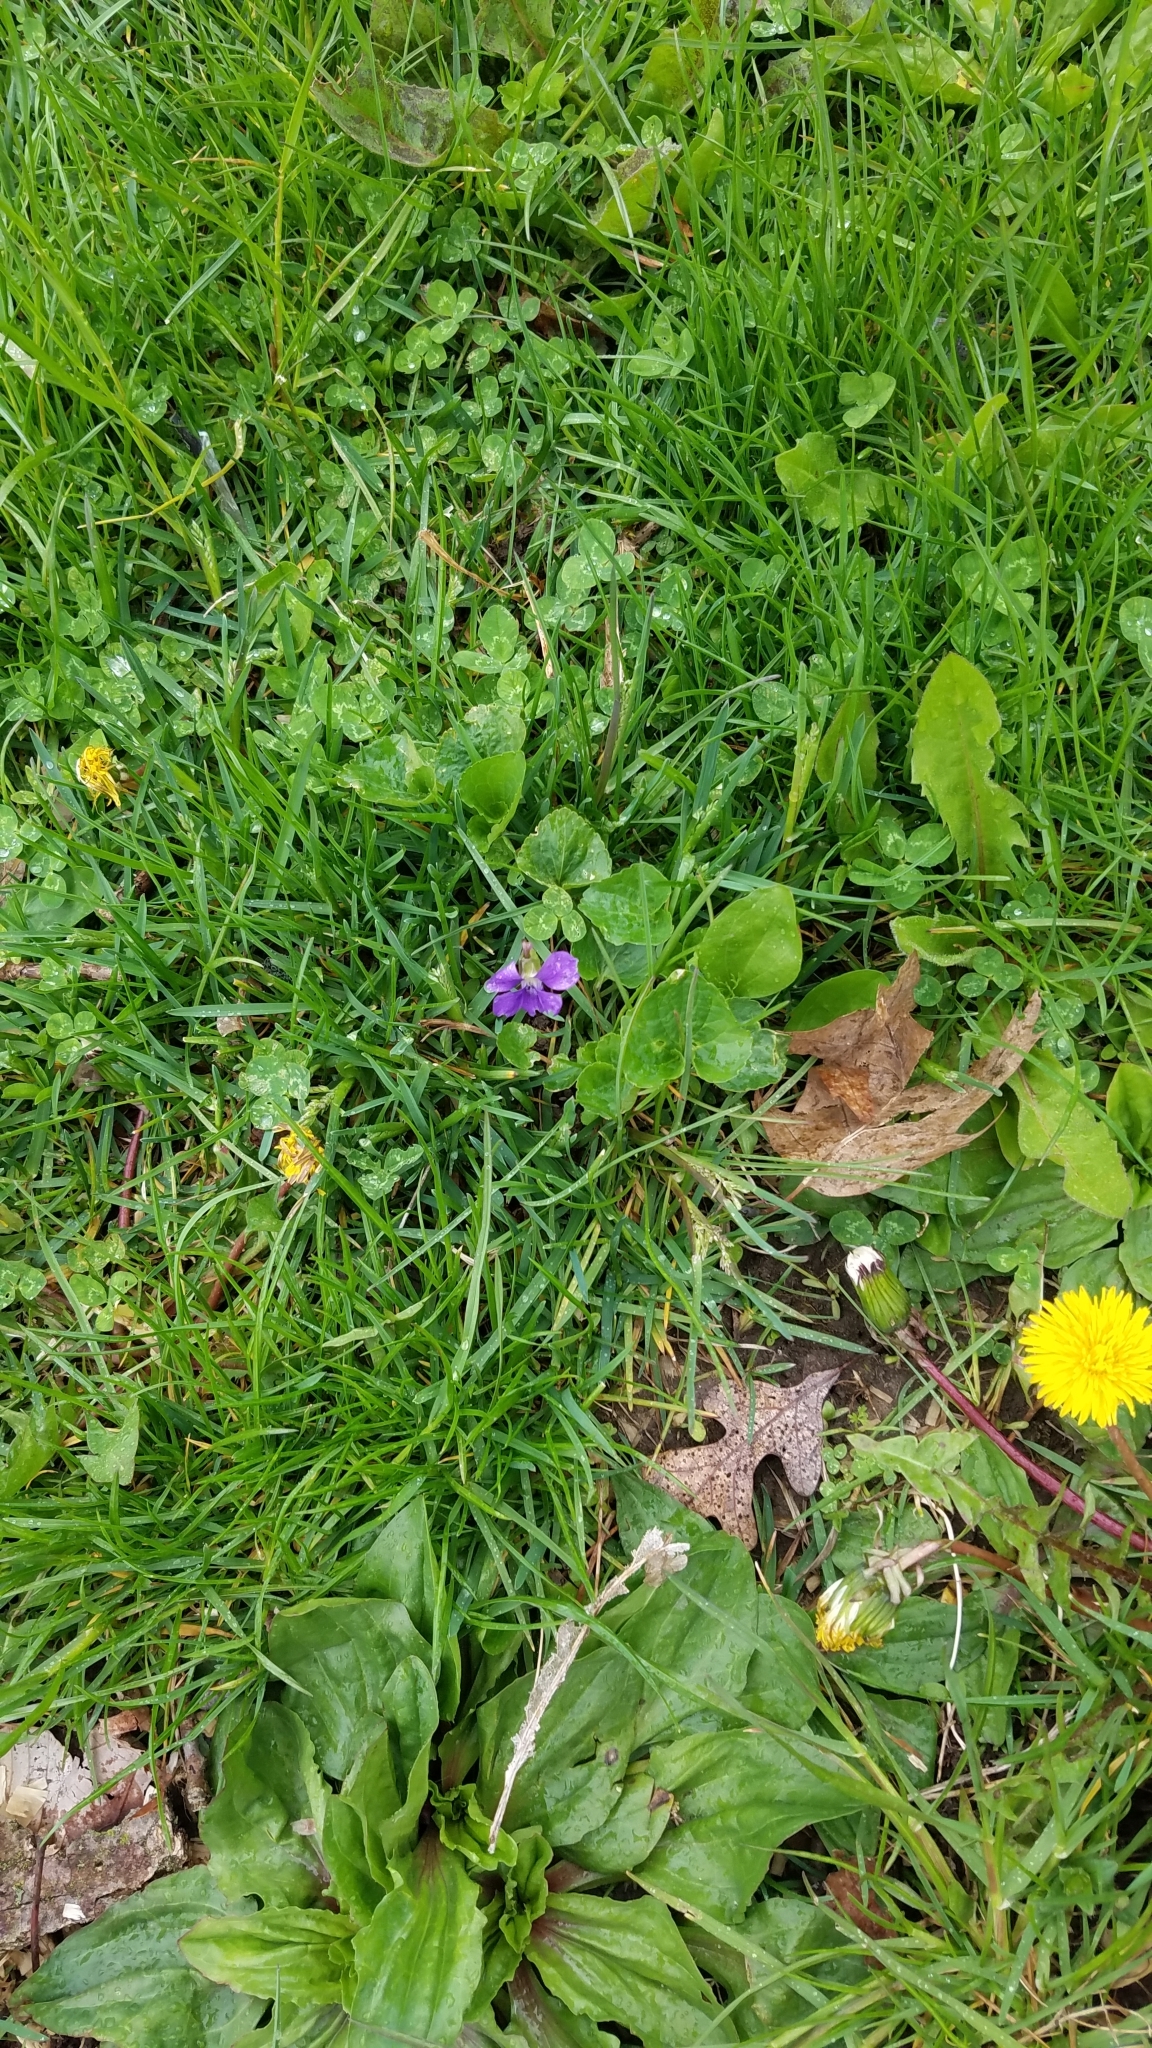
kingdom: Plantae
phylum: Tracheophyta
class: Magnoliopsida
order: Malpighiales
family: Violaceae
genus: Viola
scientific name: Viola sororia
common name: Dooryard violet
